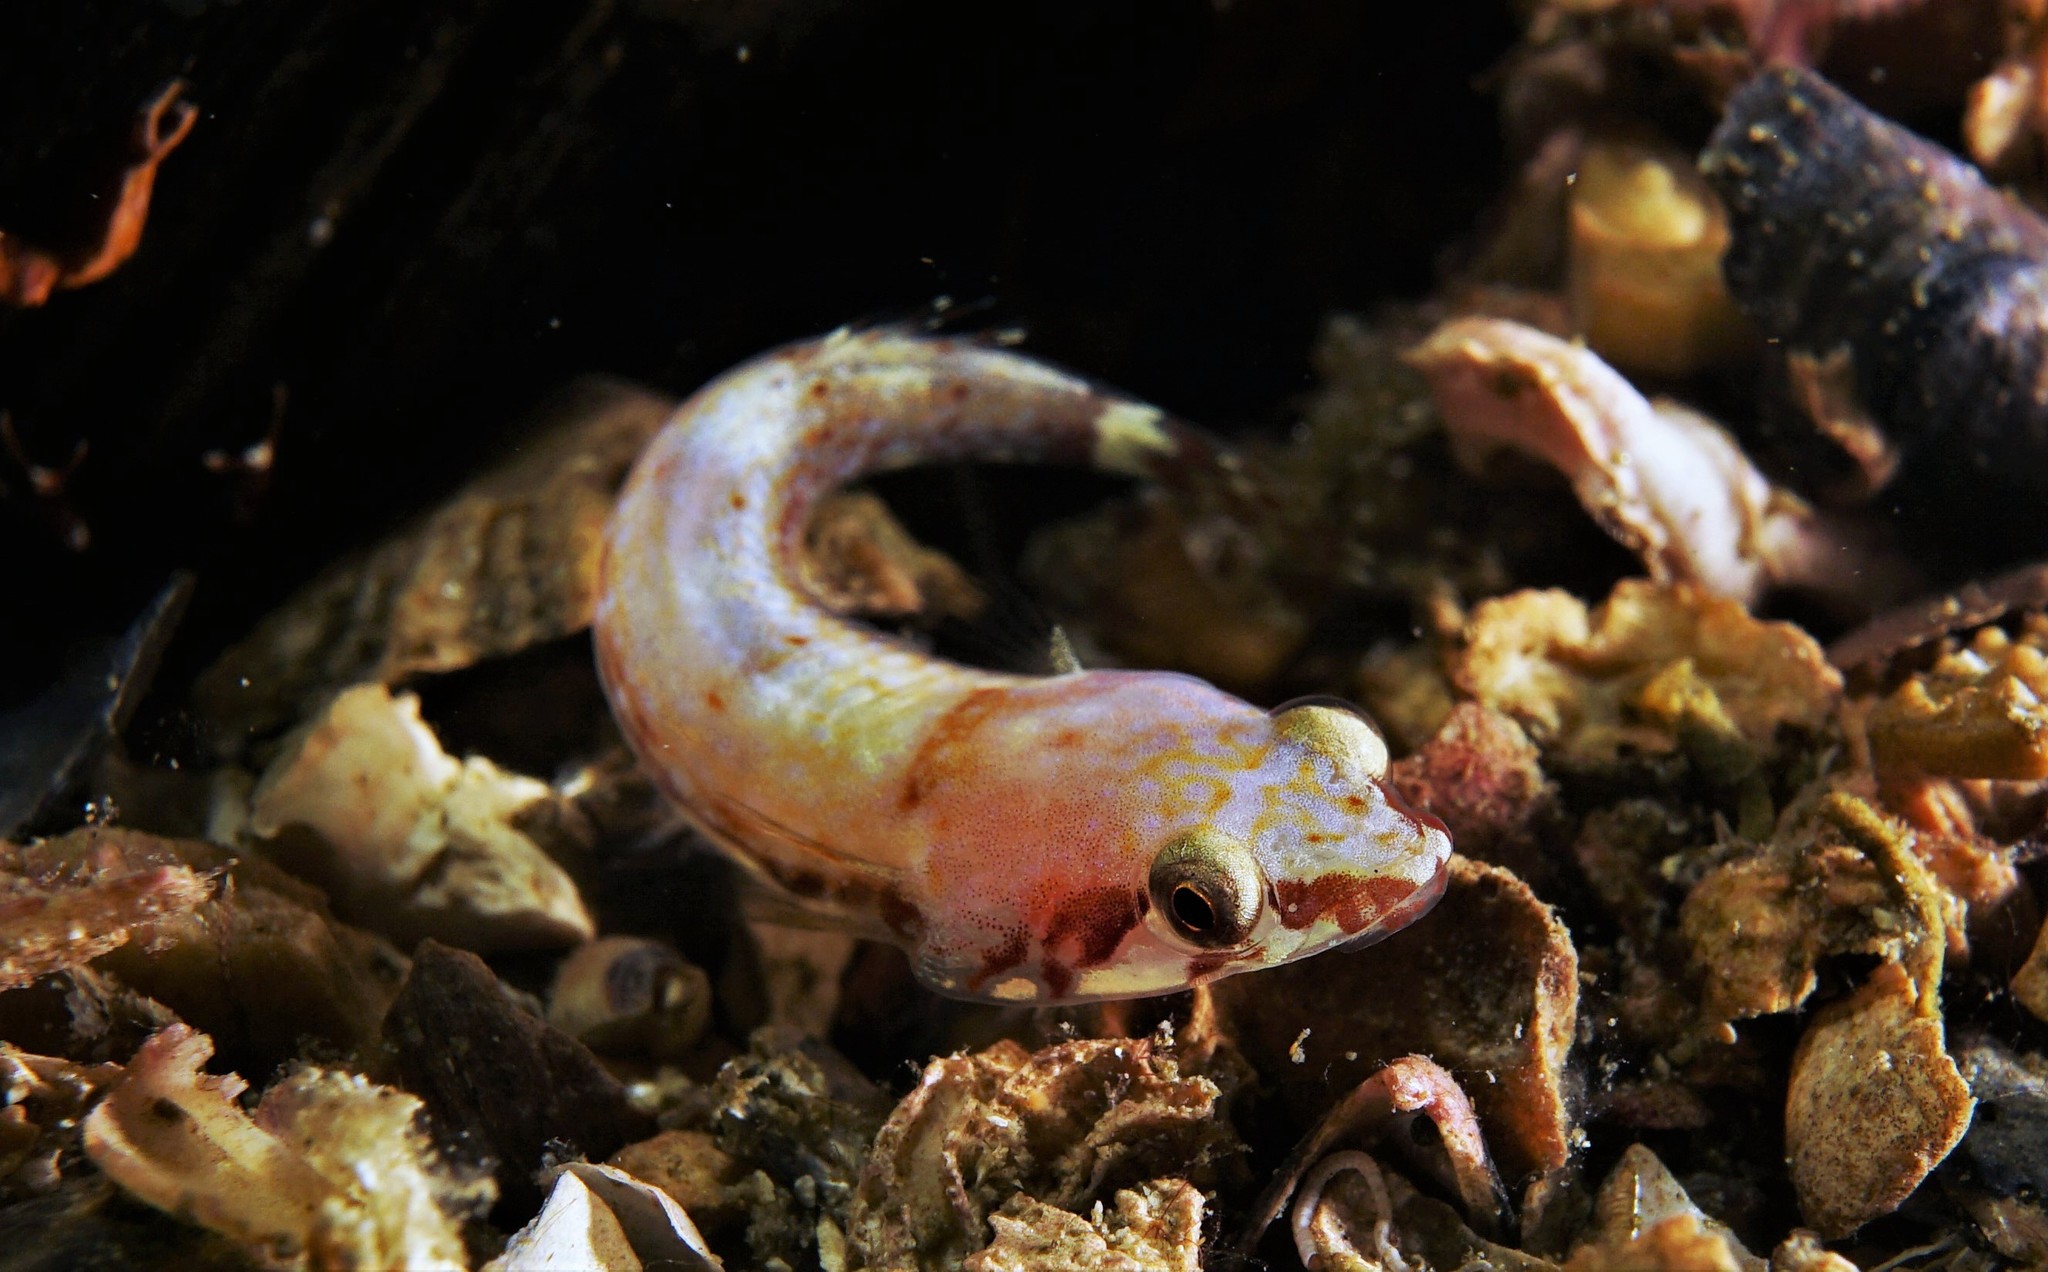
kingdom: Animalia
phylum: Chordata
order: Gobiesociformes
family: Gobiesocidae
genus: Diplecogaster
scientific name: Diplecogaster bimaculata
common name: Two-spotted clingfish
